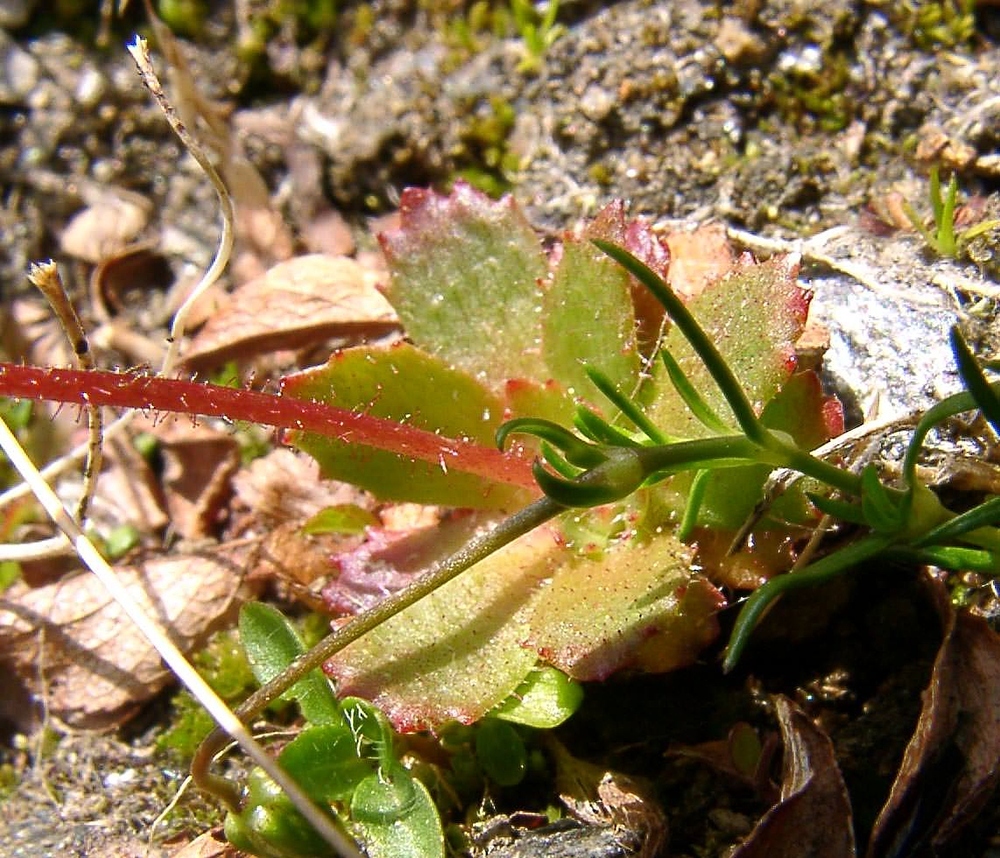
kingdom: Plantae
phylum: Tracheophyta
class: Magnoliopsida
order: Saxifragales
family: Saxifragaceae
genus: Micranthes
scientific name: Micranthes stellaris
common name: Starry saxifrage
